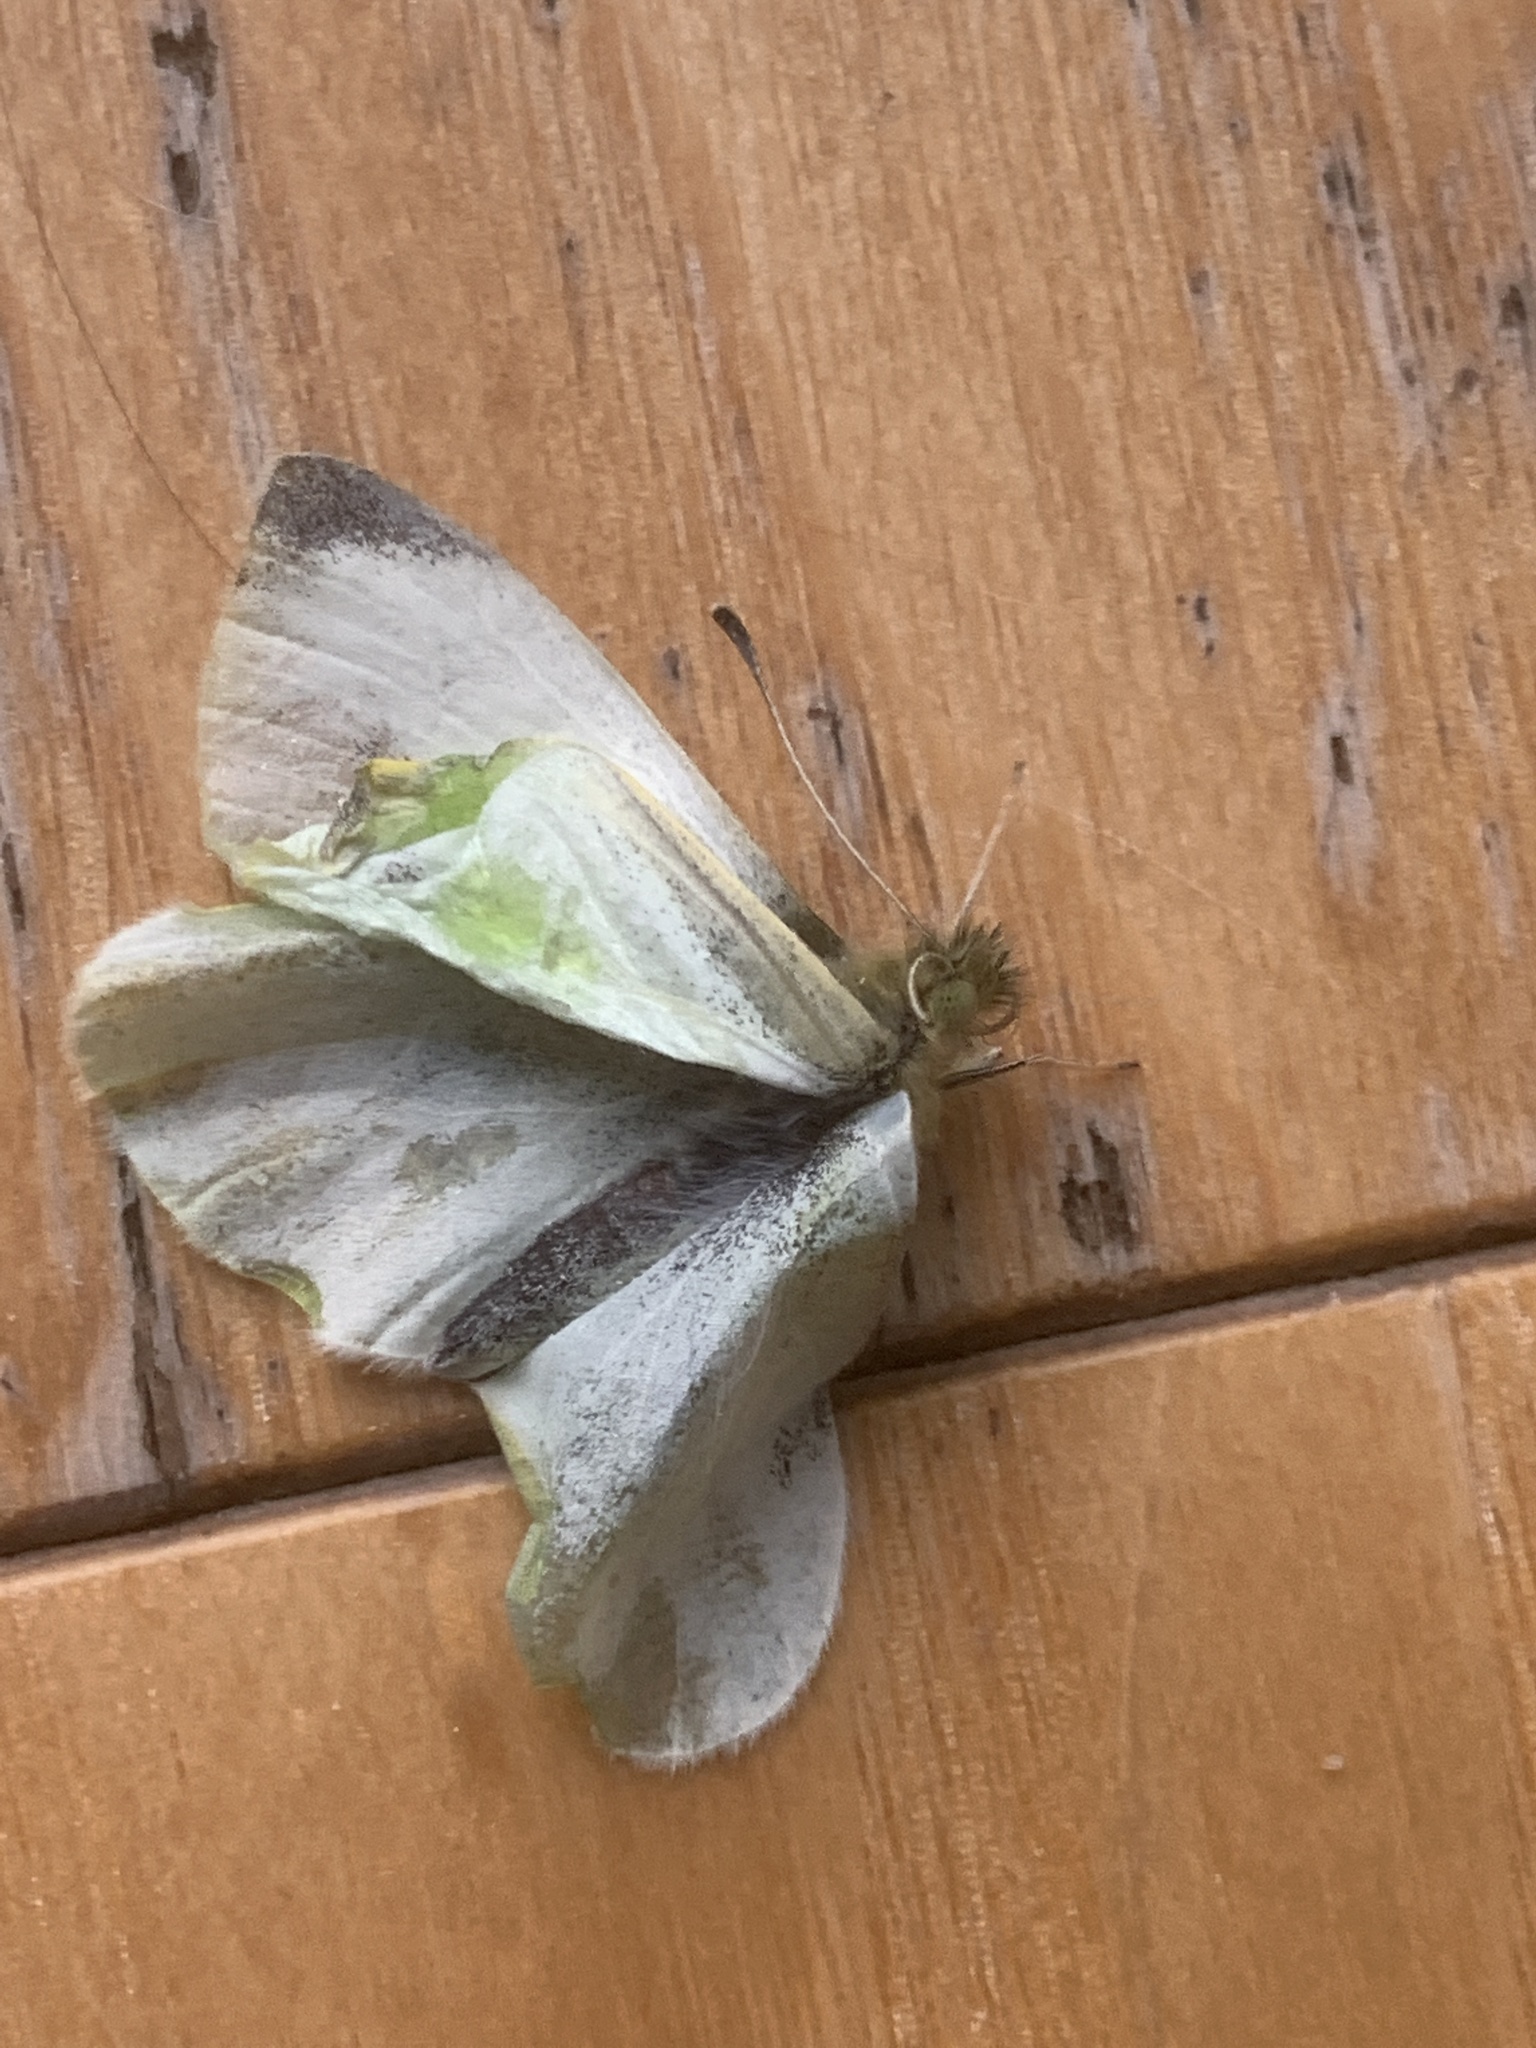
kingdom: Animalia
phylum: Arthropoda
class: Insecta
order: Lepidoptera
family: Pieridae
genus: Pieris
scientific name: Pieris rapae
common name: Small white
